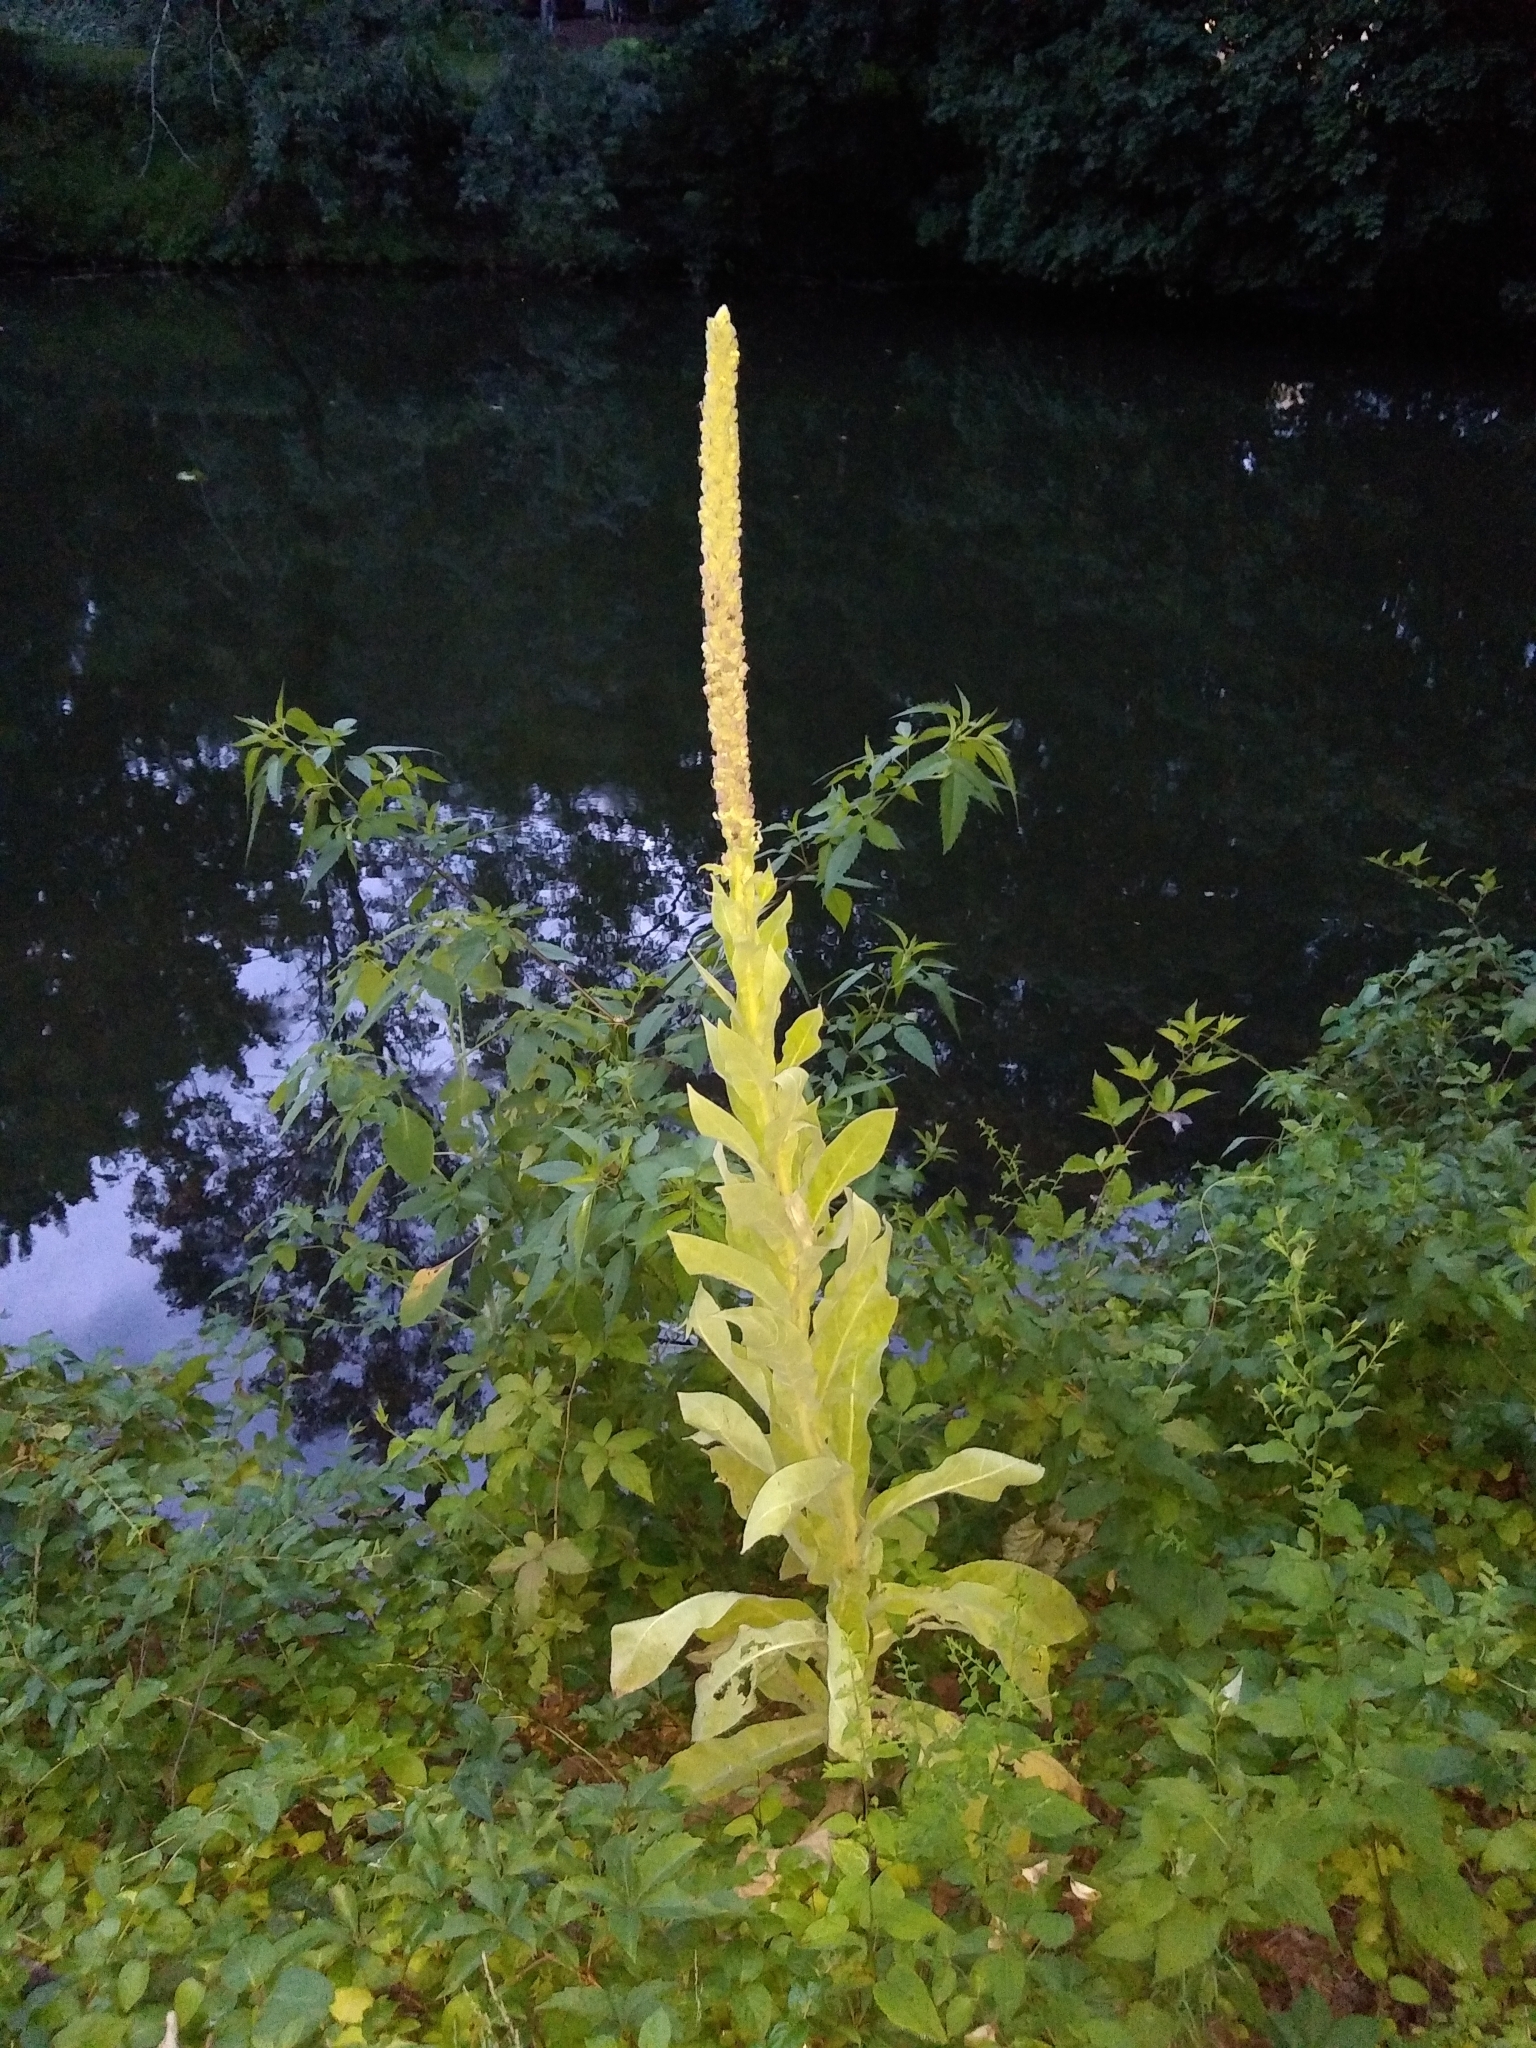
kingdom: Plantae
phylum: Tracheophyta
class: Magnoliopsida
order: Lamiales
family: Scrophulariaceae
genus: Verbascum
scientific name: Verbascum thapsus
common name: Common mullein
